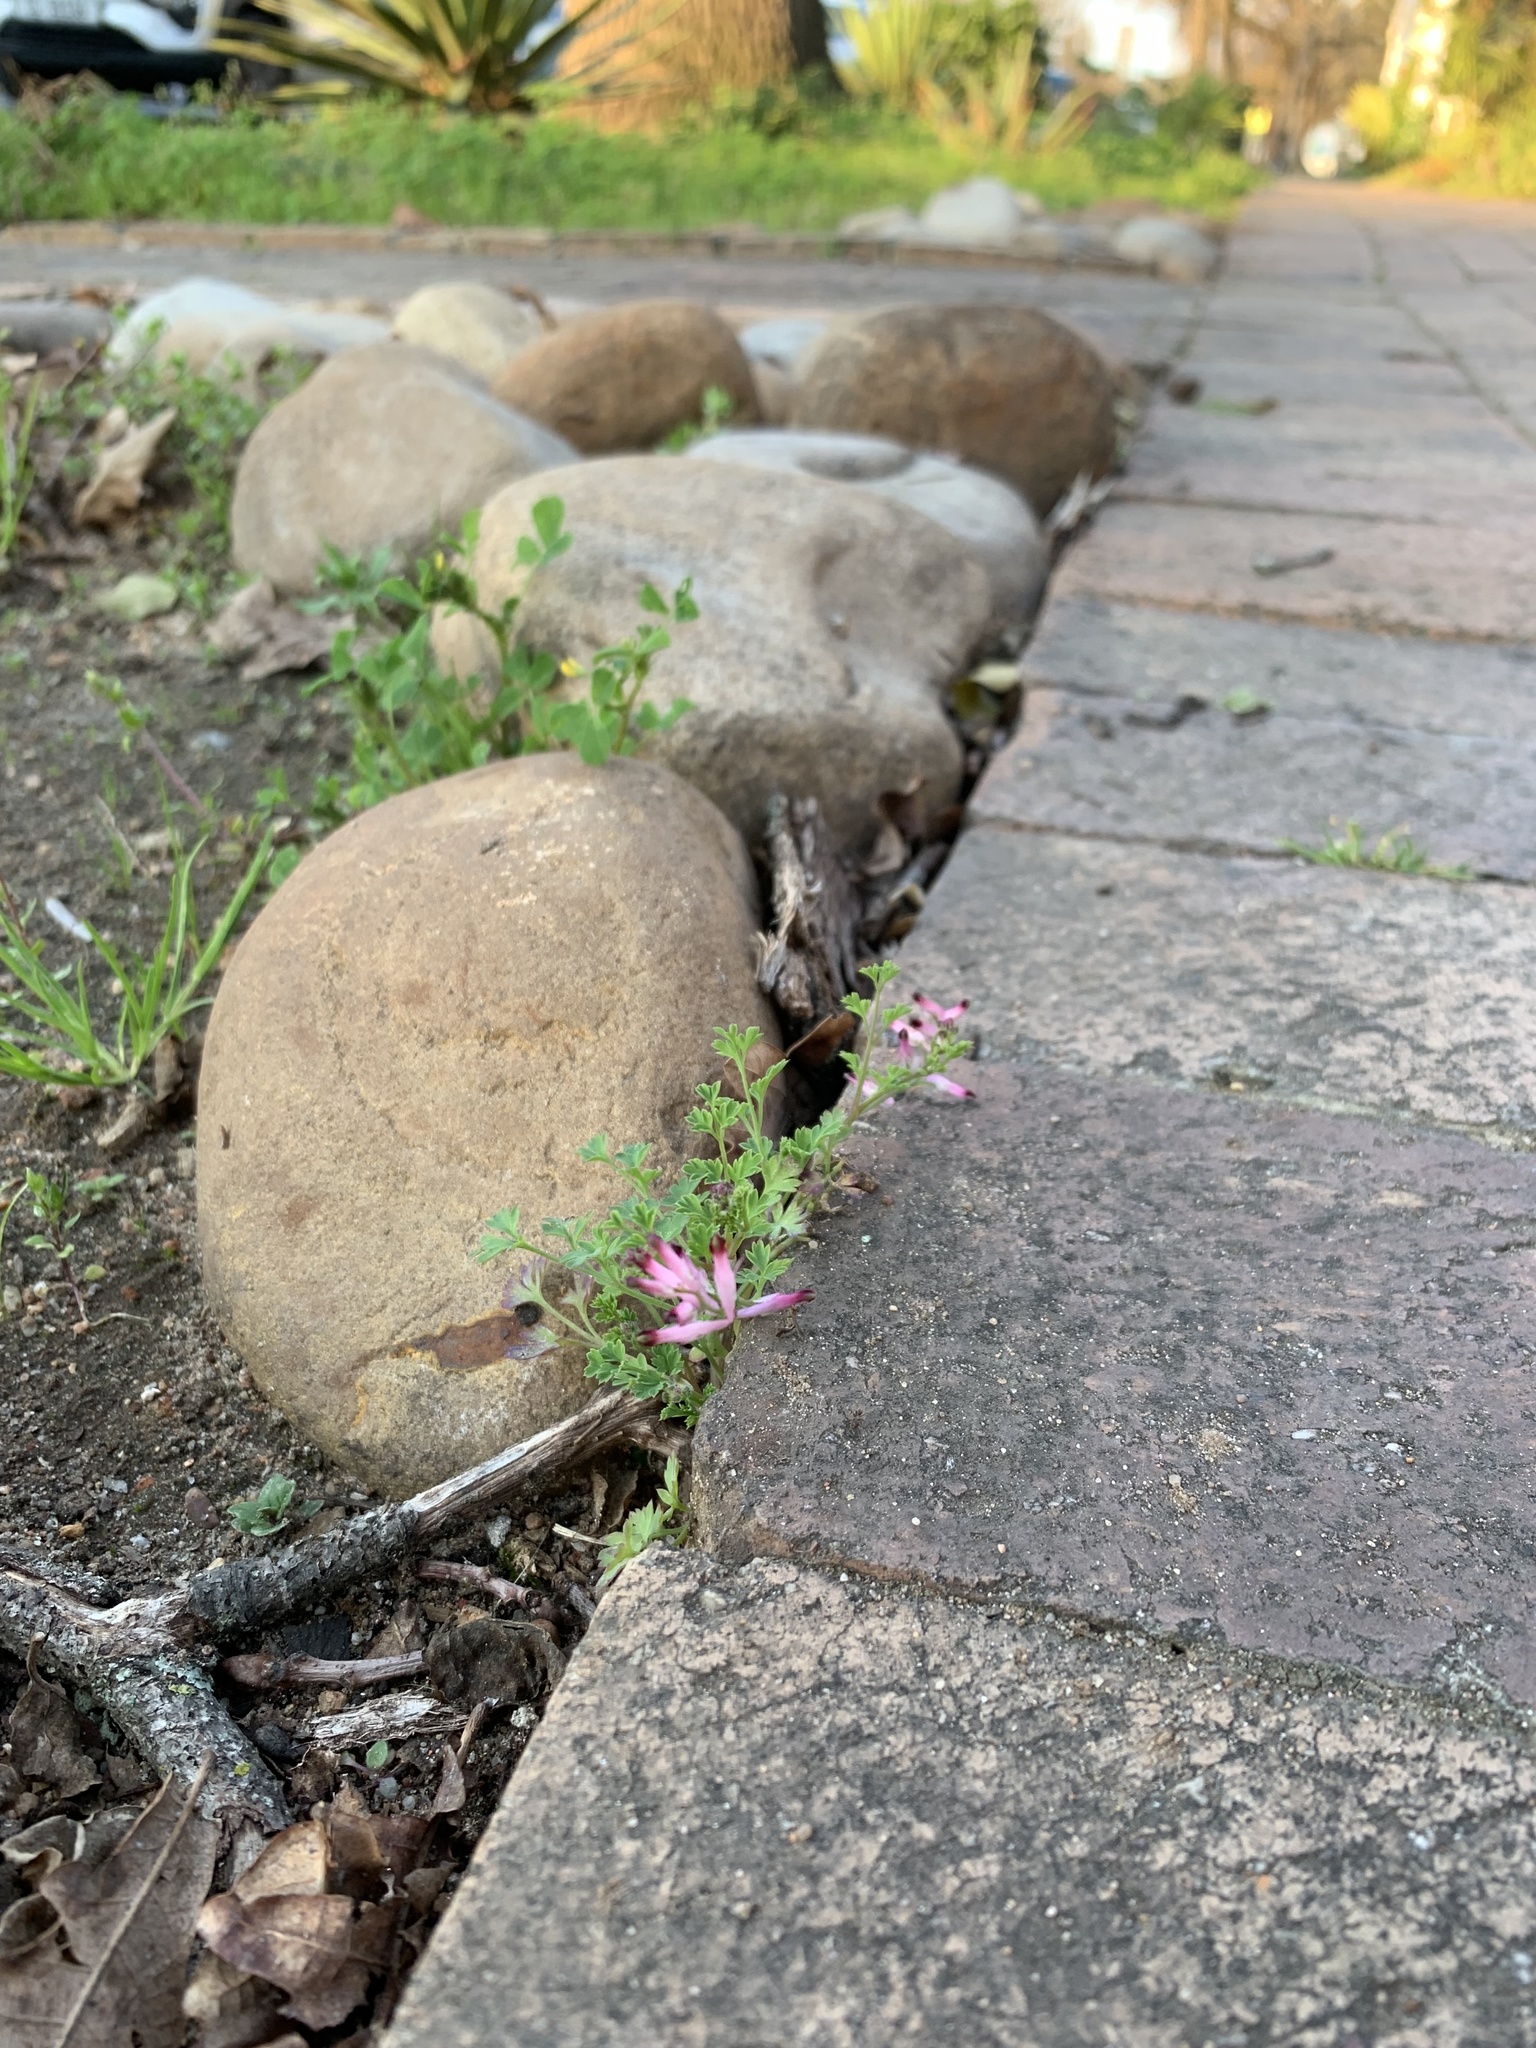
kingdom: Plantae
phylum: Tracheophyta
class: Magnoliopsida
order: Ranunculales
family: Papaveraceae
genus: Fumaria
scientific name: Fumaria muralis
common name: Common ramping-fumitory
